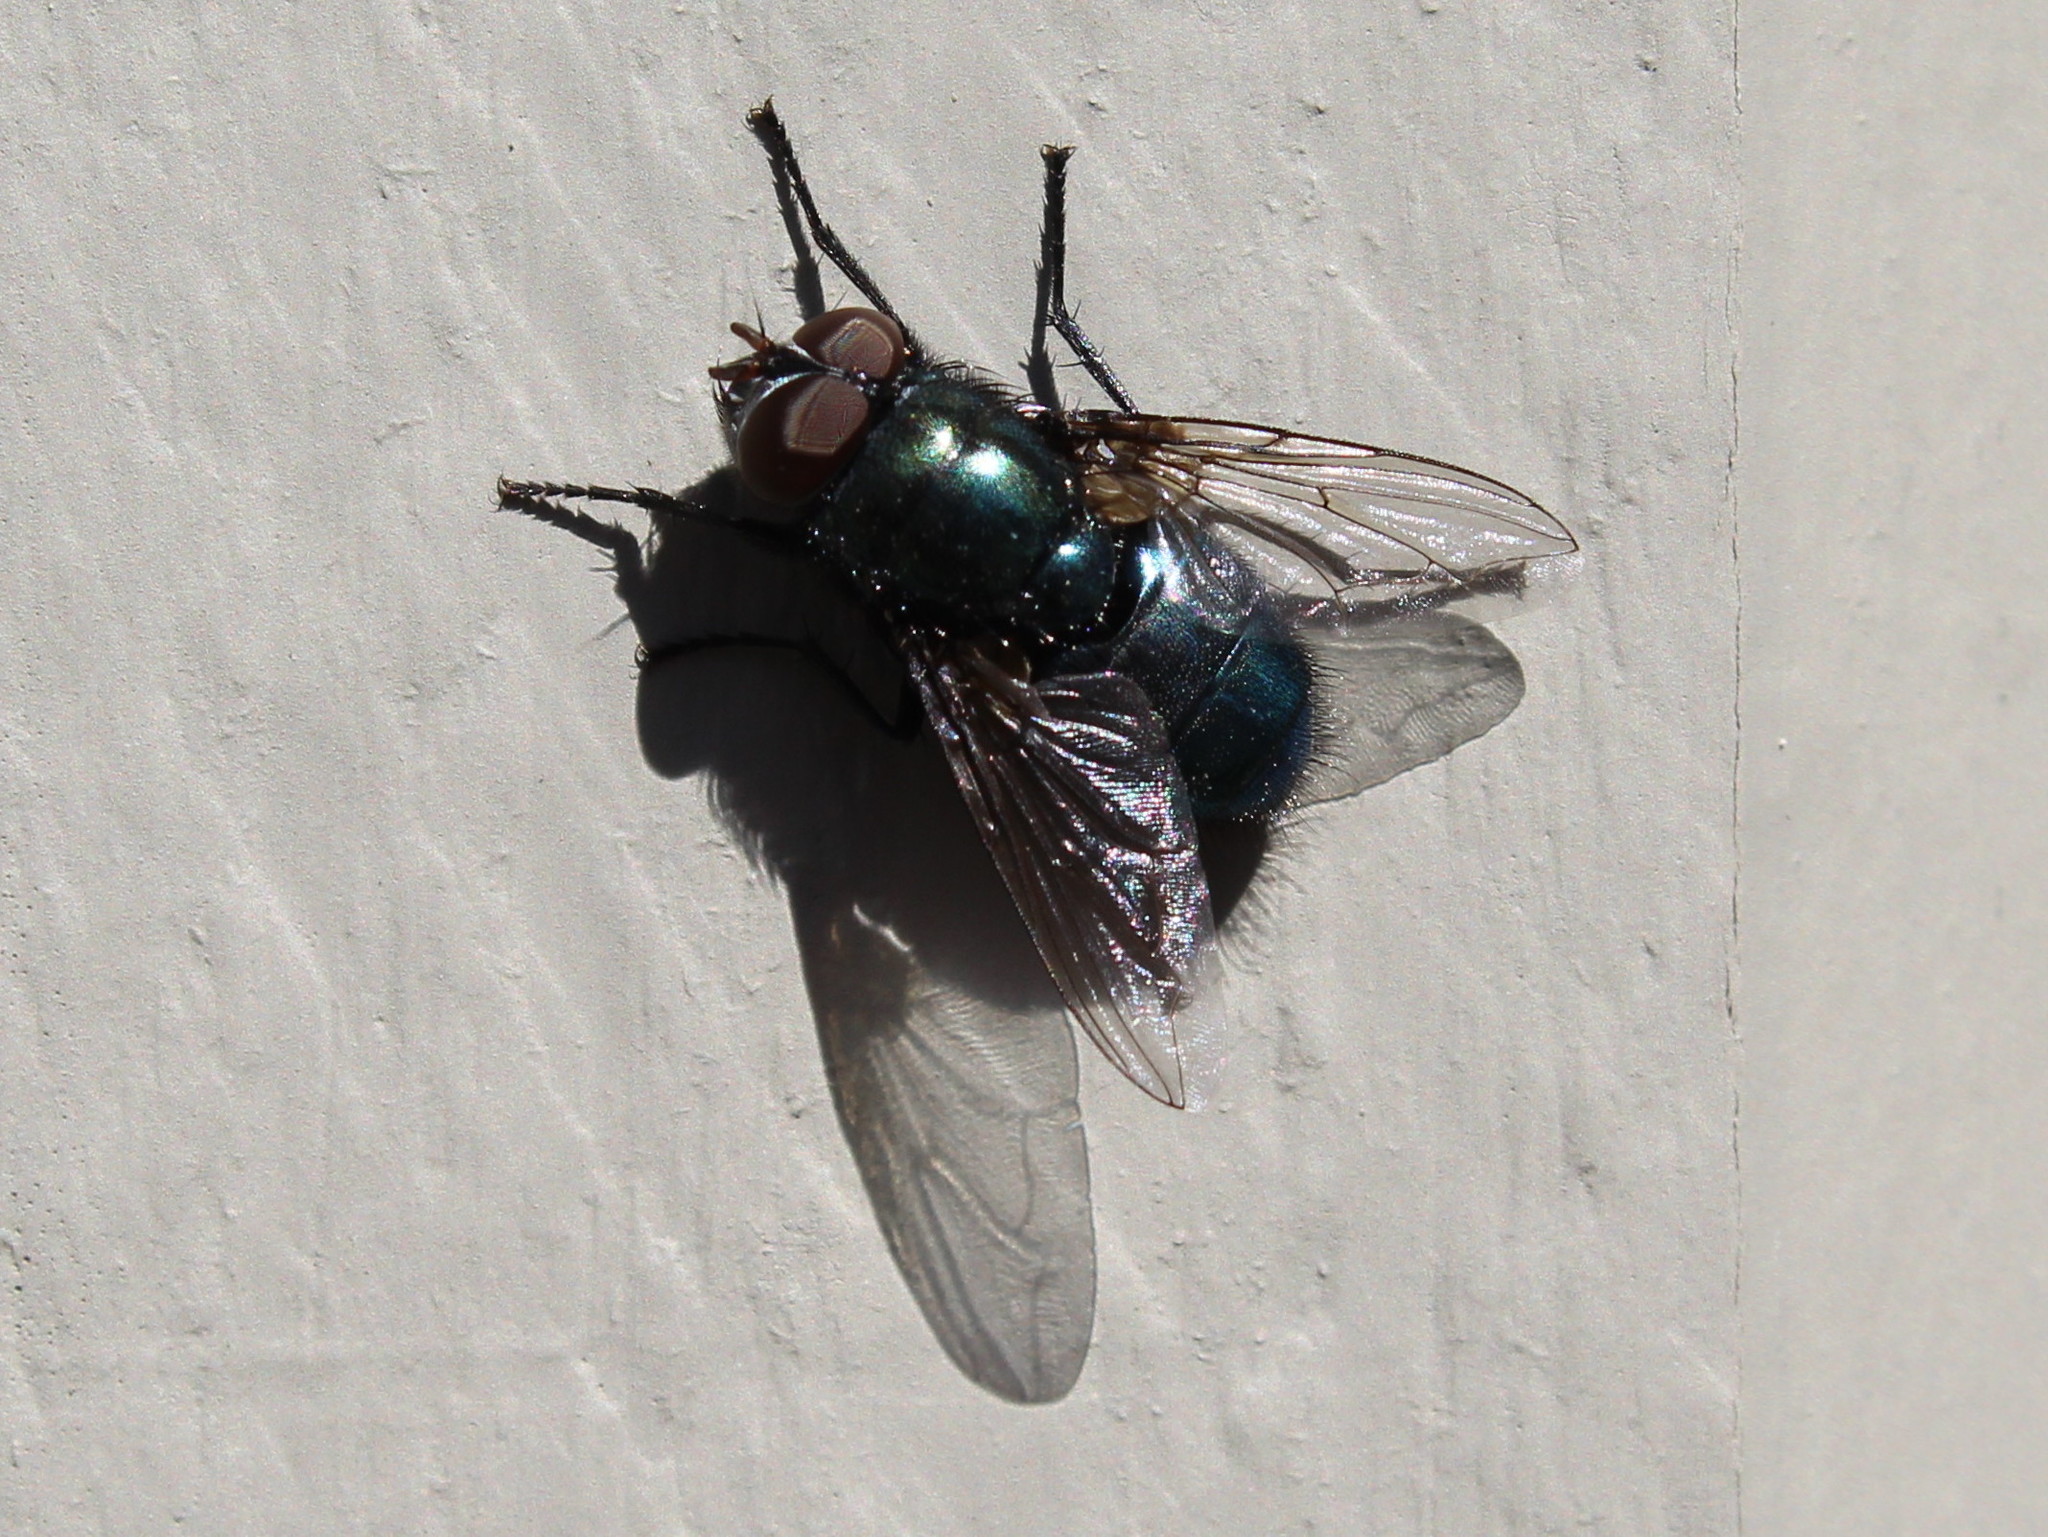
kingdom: Animalia
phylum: Arthropoda
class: Insecta
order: Diptera
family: Calliphoridae
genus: Phormia
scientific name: Phormia regina
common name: Black blow fly
